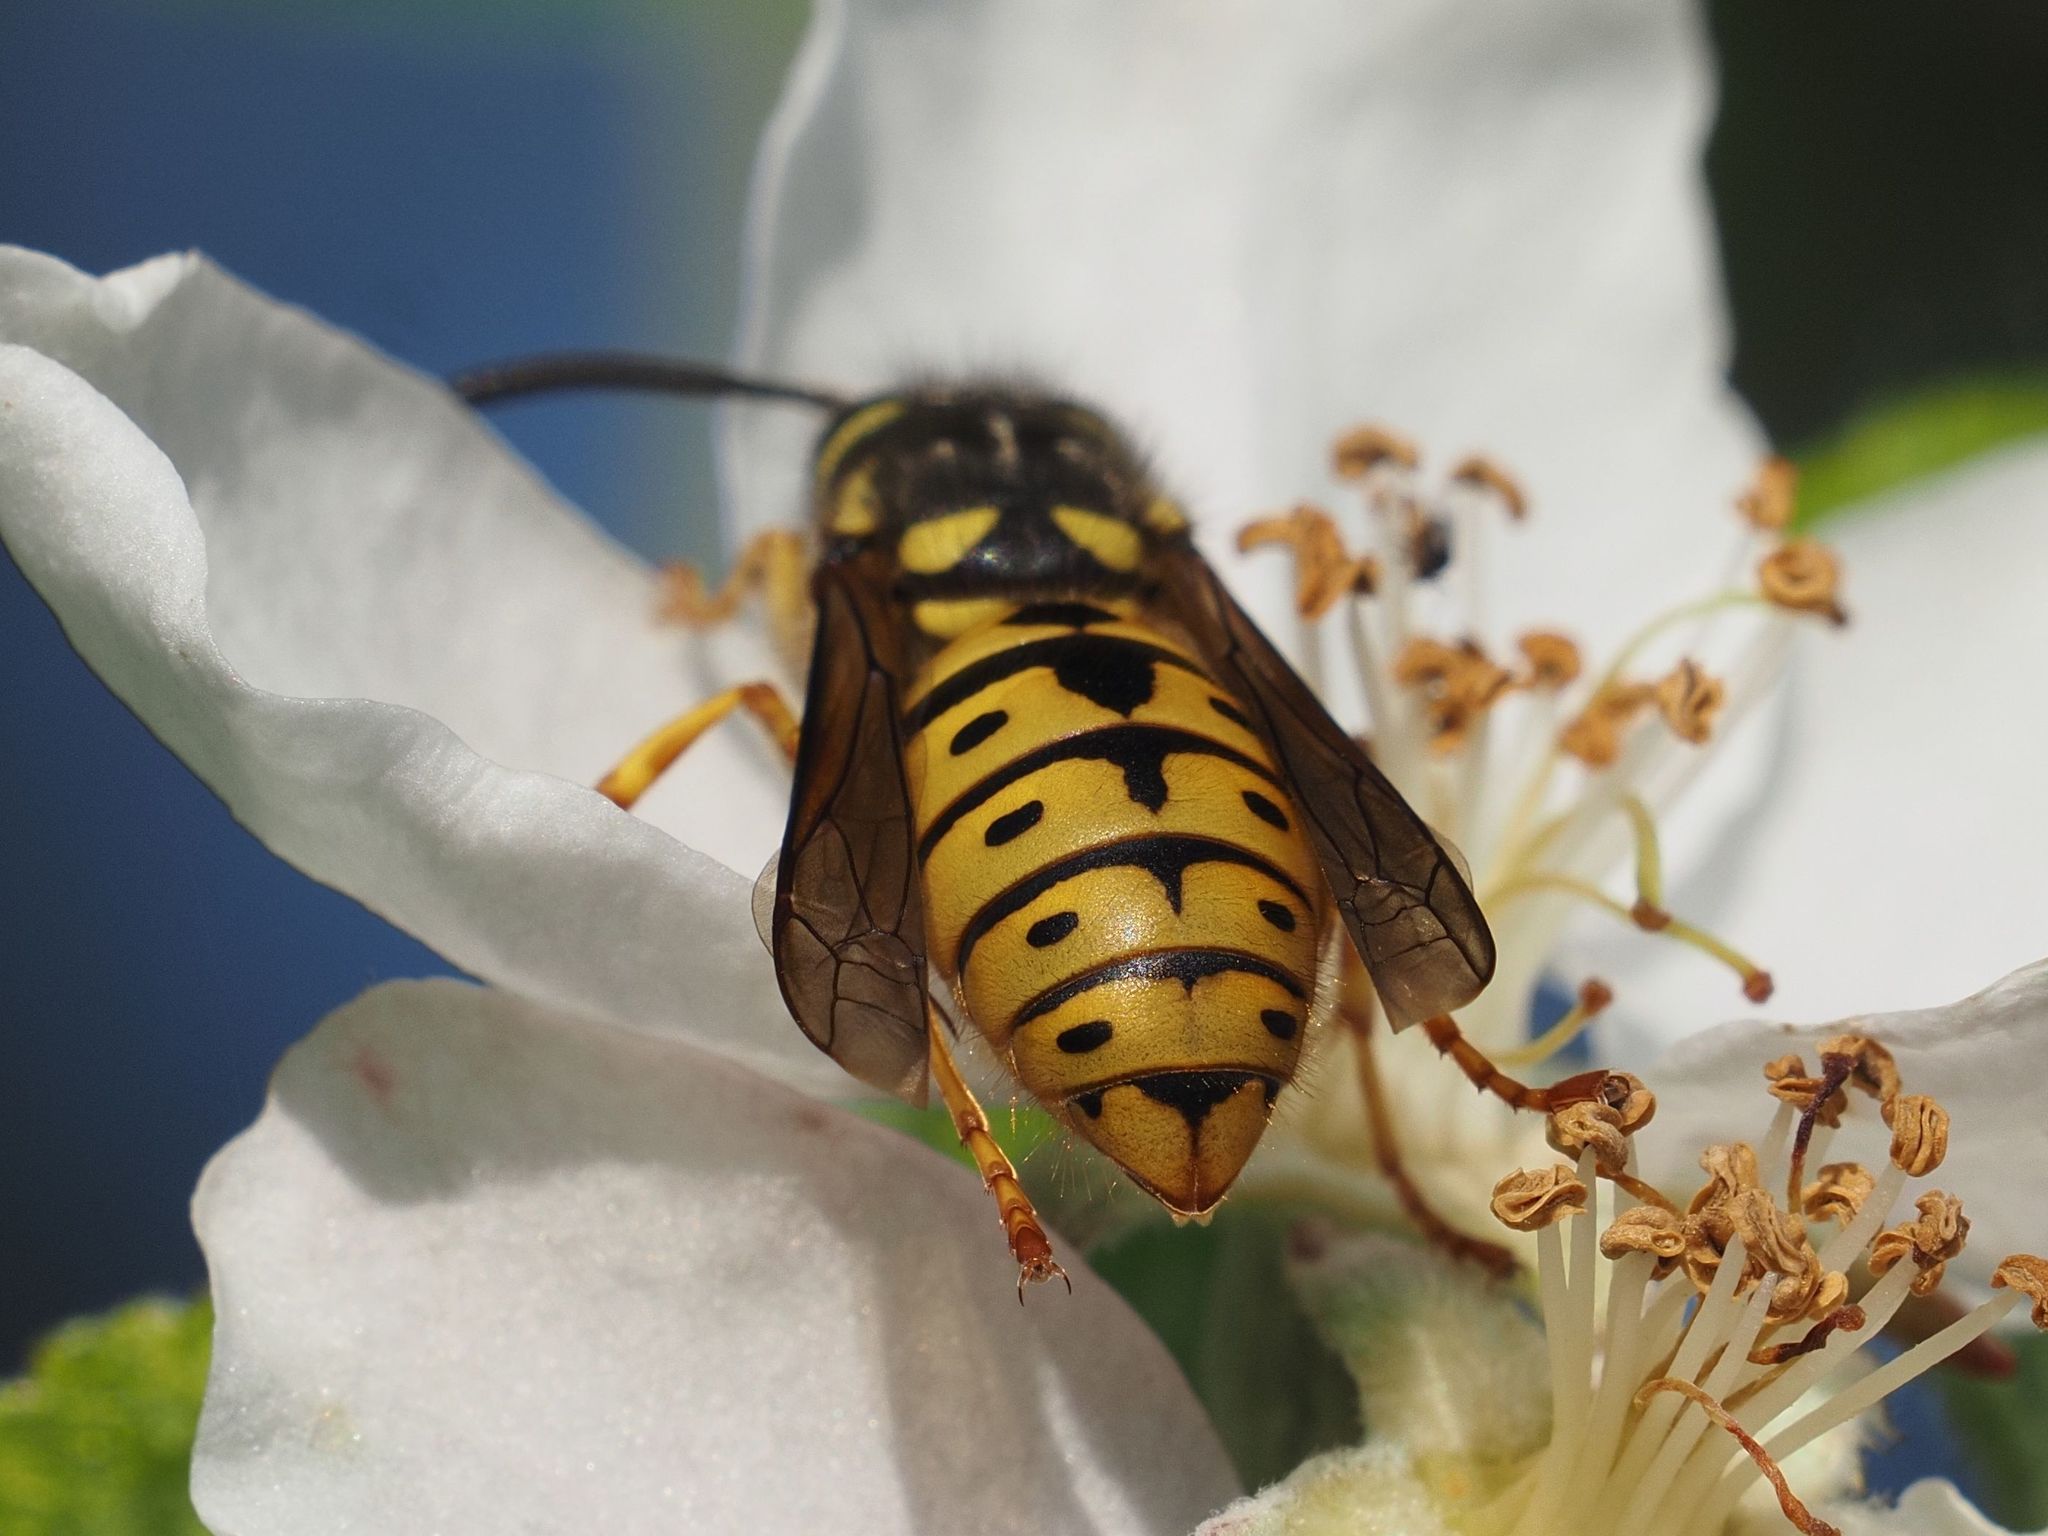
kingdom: Animalia
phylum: Arthropoda
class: Insecta
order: Hymenoptera
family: Vespidae
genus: Vespula
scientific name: Vespula germanica
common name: German wasp
